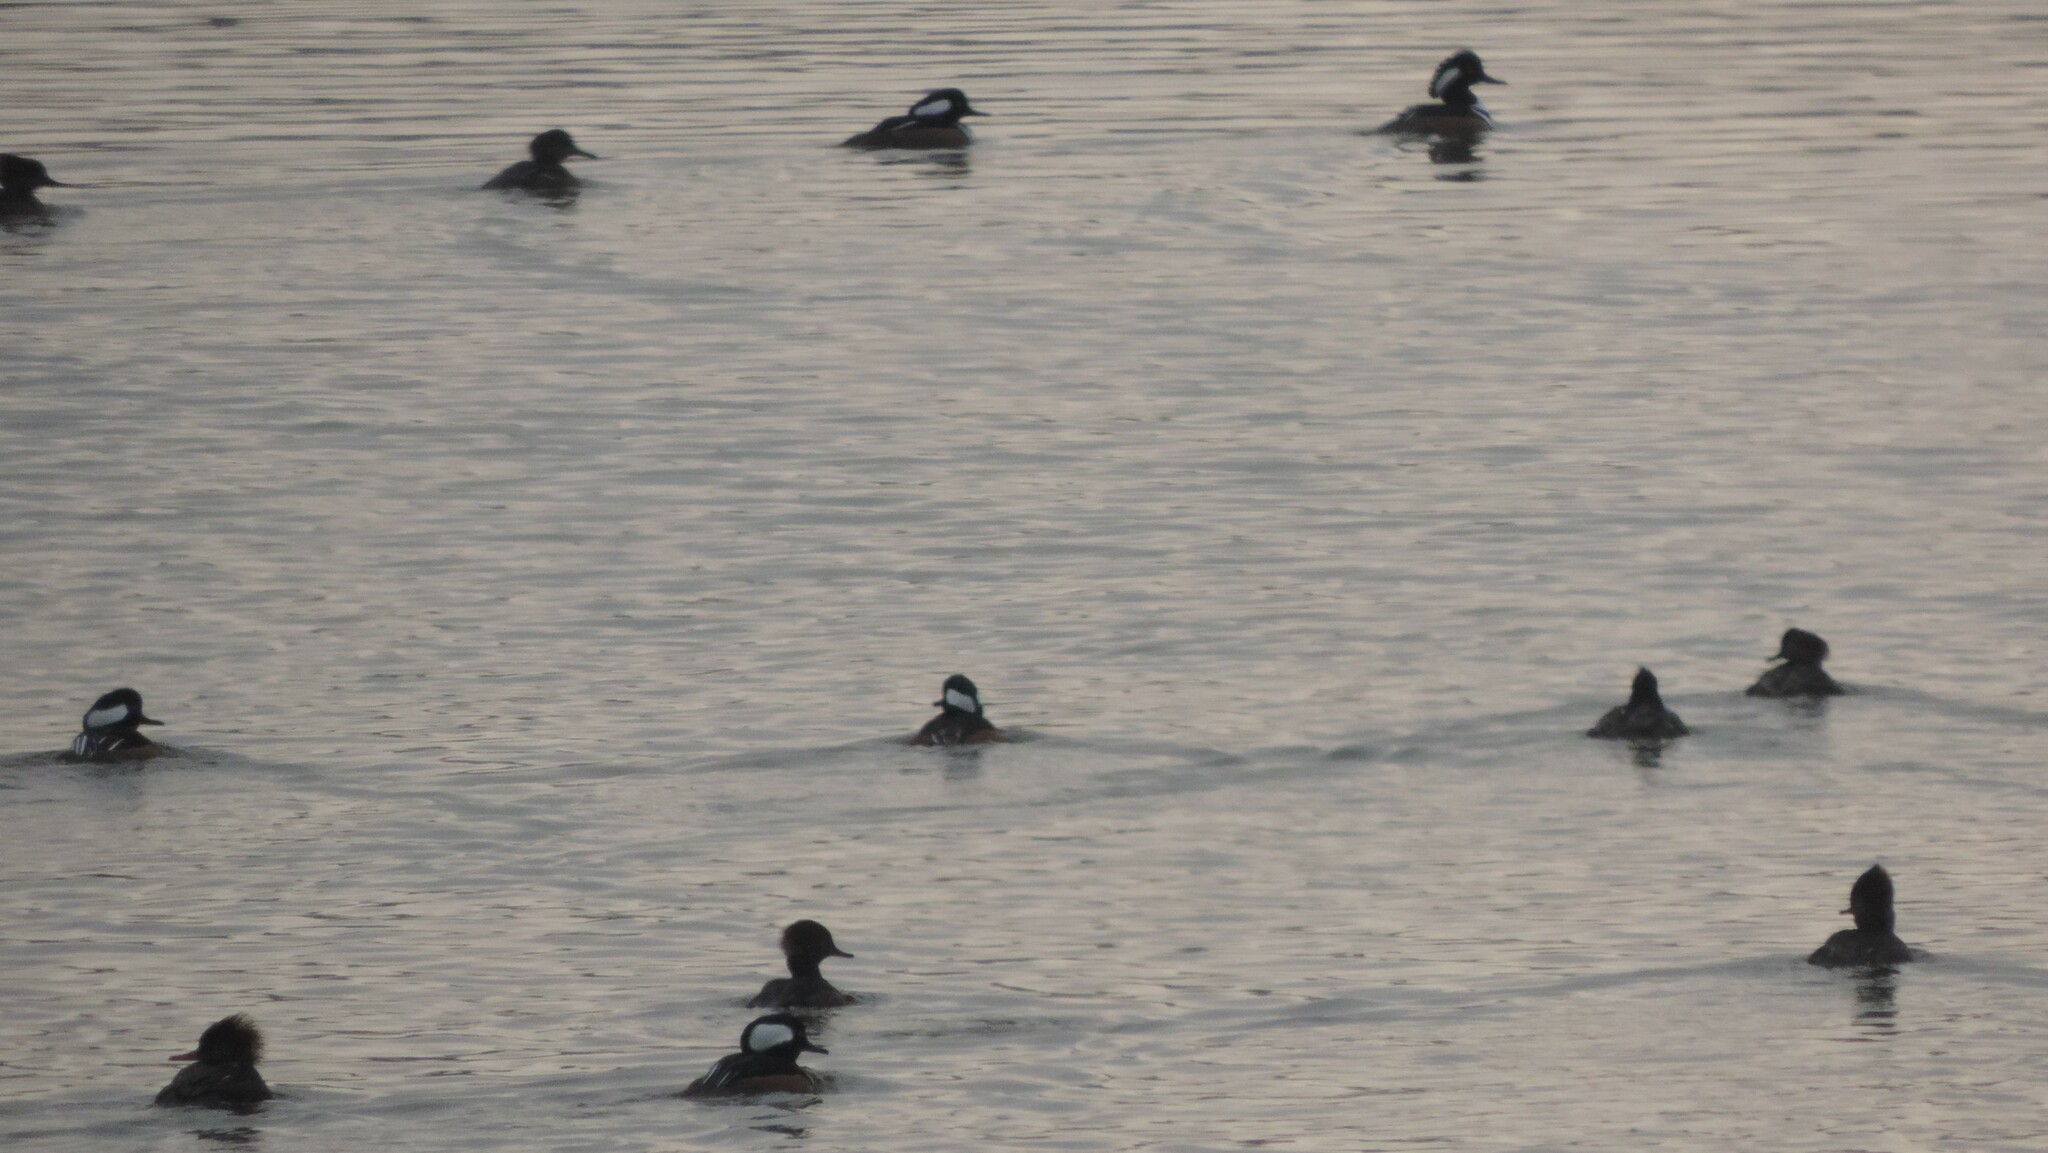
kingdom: Animalia
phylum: Chordata
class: Aves
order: Anseriformes
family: Anatidae
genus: Lophodytes
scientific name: Lophodytes cucullatus
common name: Hooded merganser
